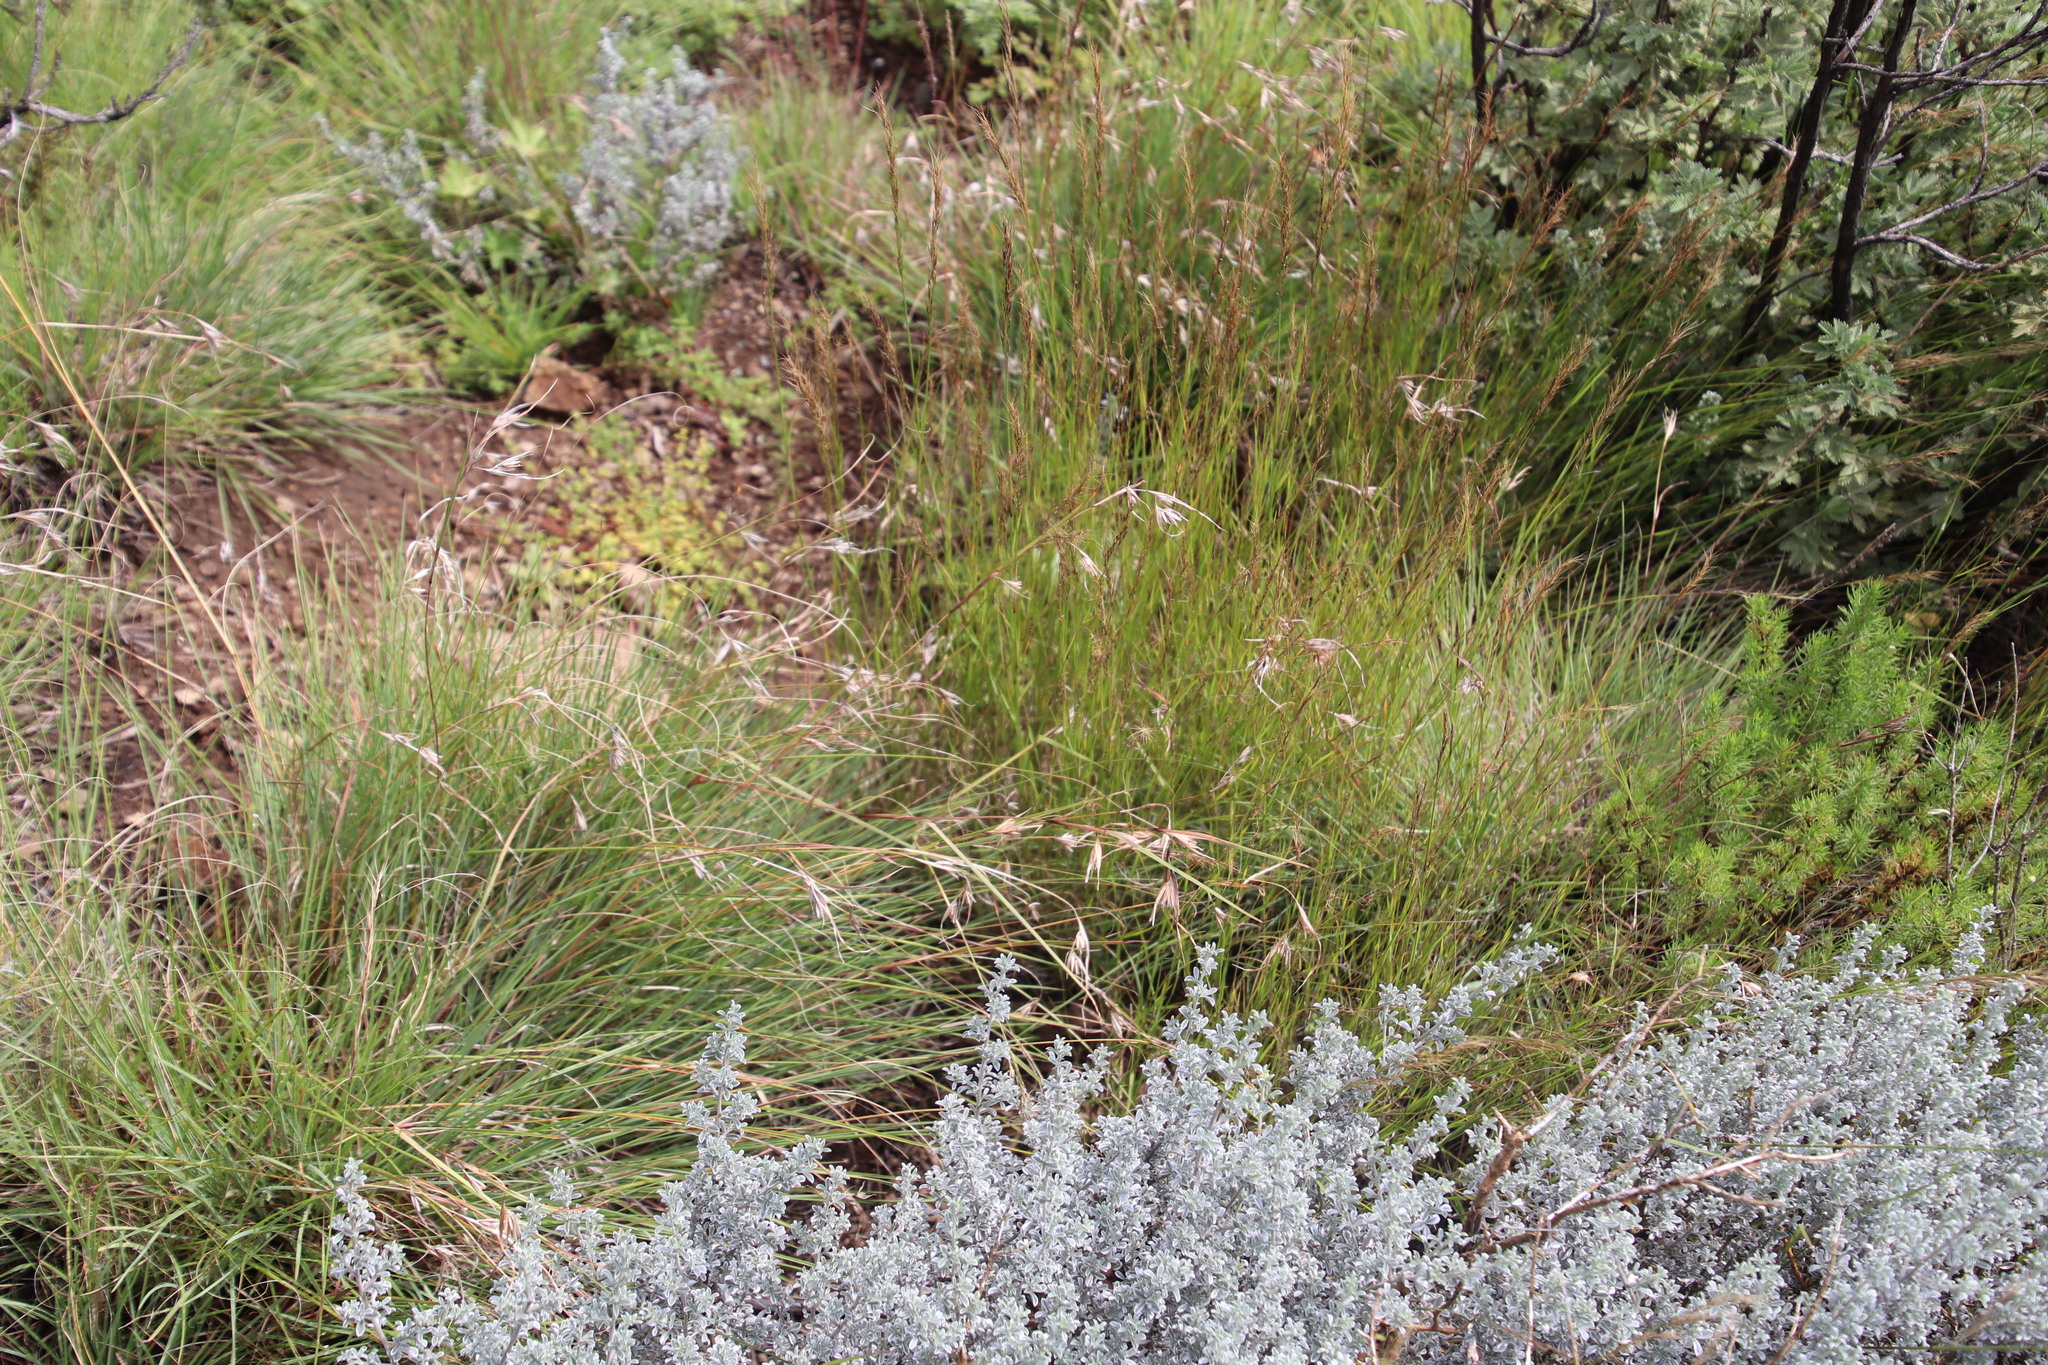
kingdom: Plantae
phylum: Tracheophyta
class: Liliopsida
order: Poales
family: Poaceae
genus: Themeda
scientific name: Themeda triandra
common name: Kangaroo grass
